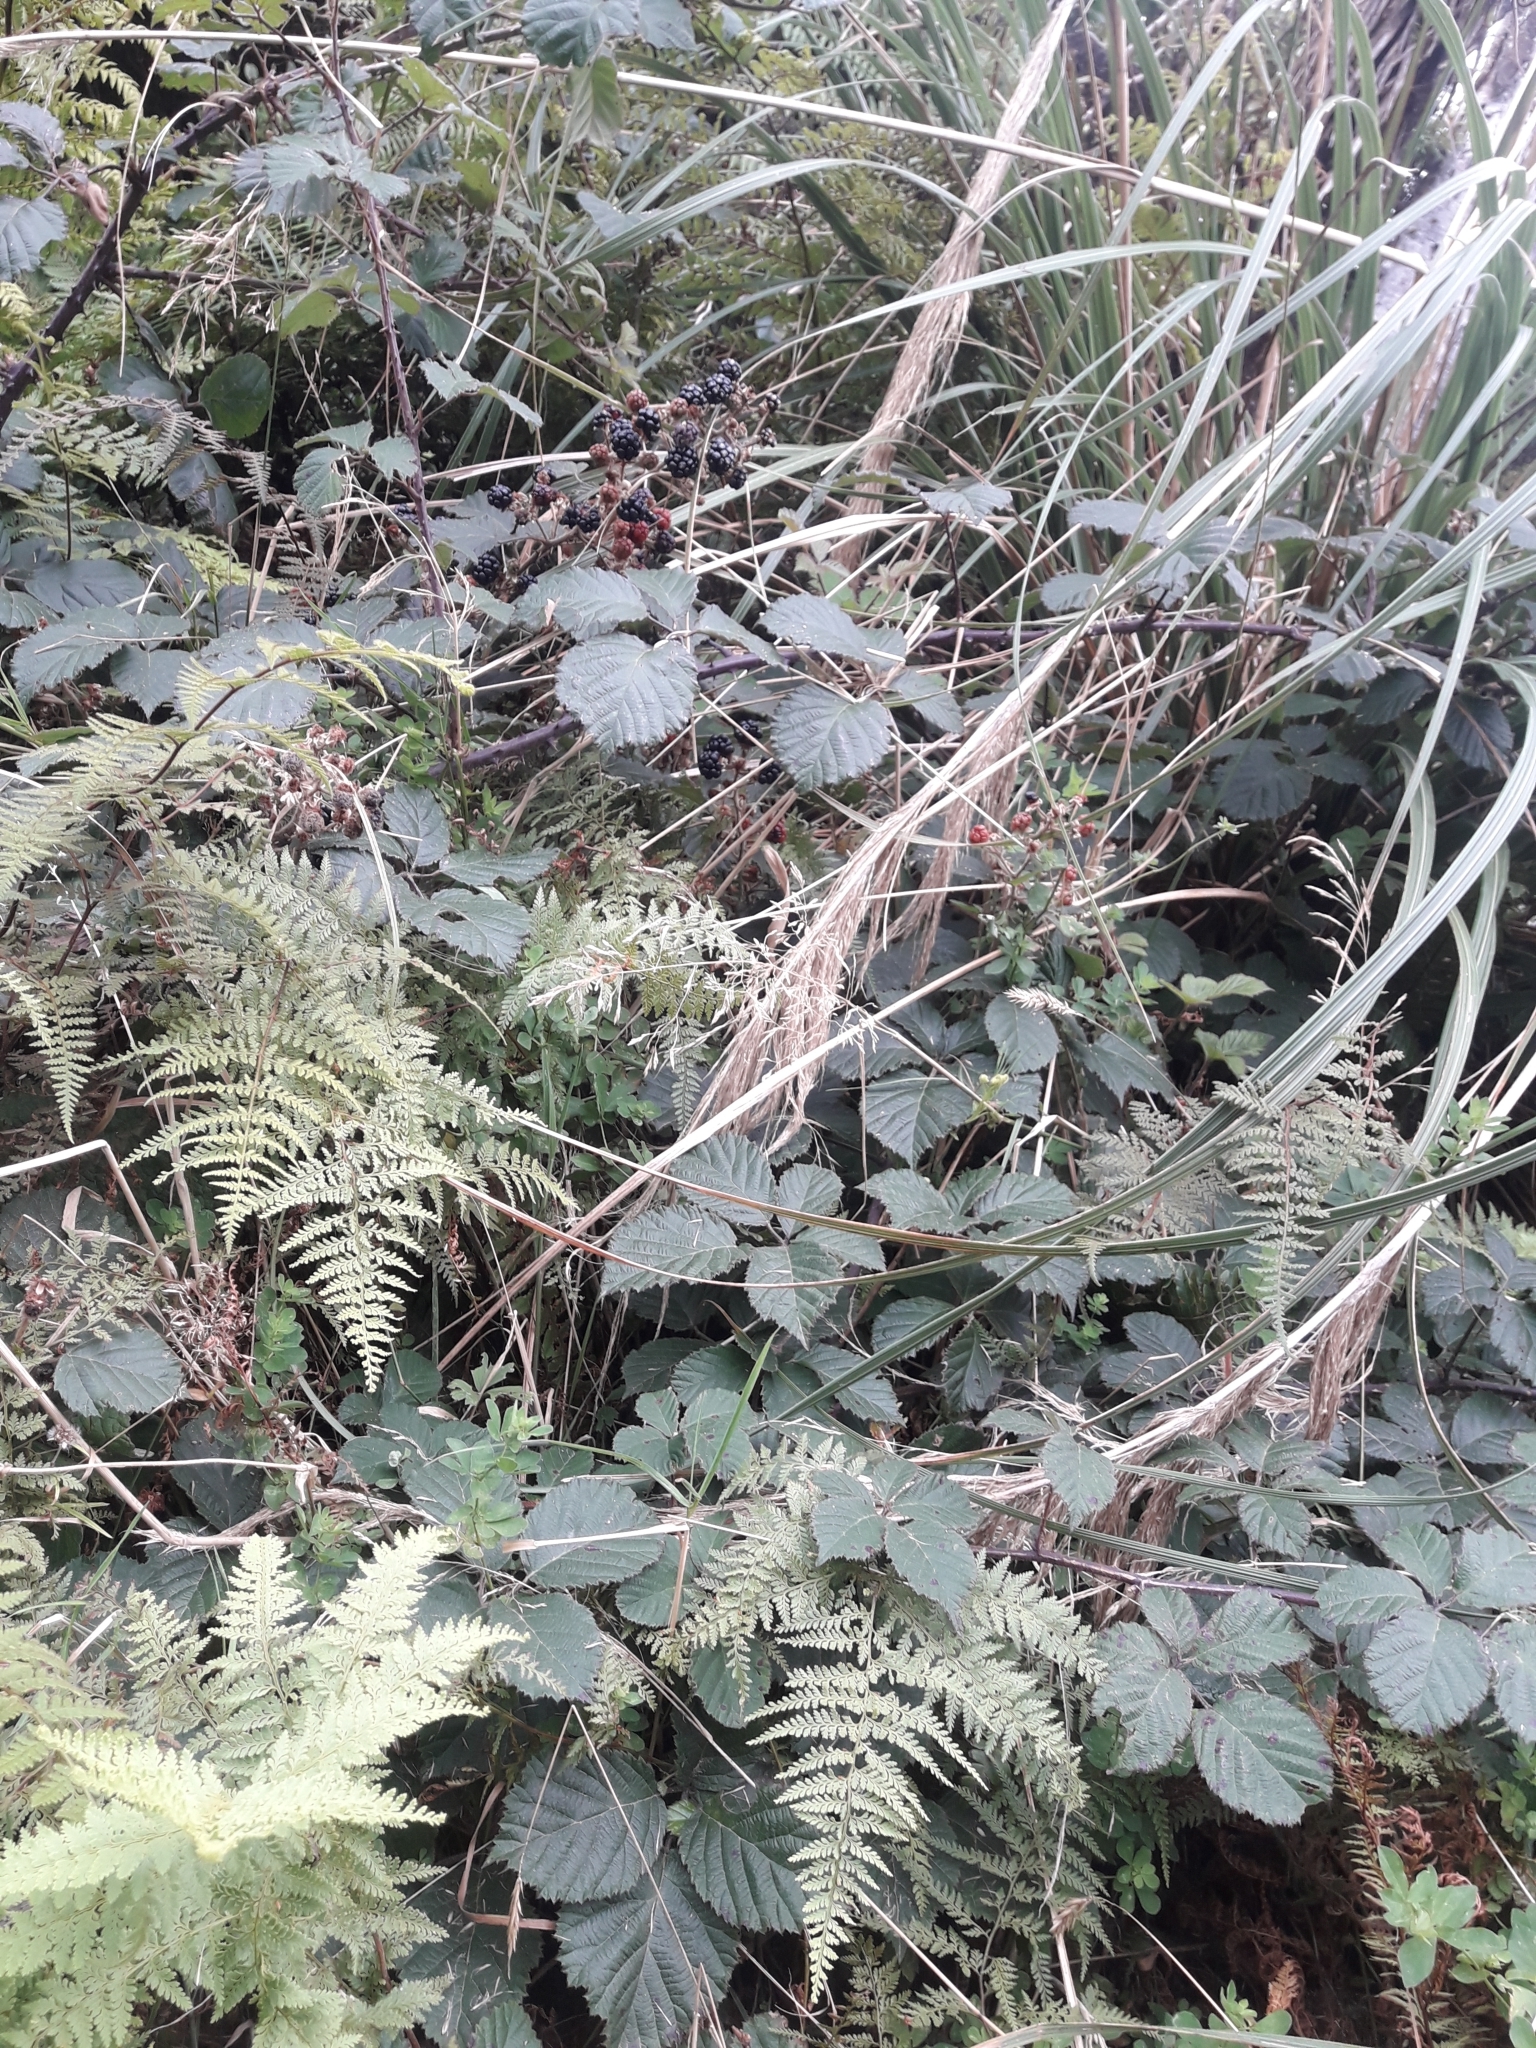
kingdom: Plantae
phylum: Tracheophyta
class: Magnoliopsida
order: Rosales
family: Rosaceae
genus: Rubus
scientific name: Rubus
